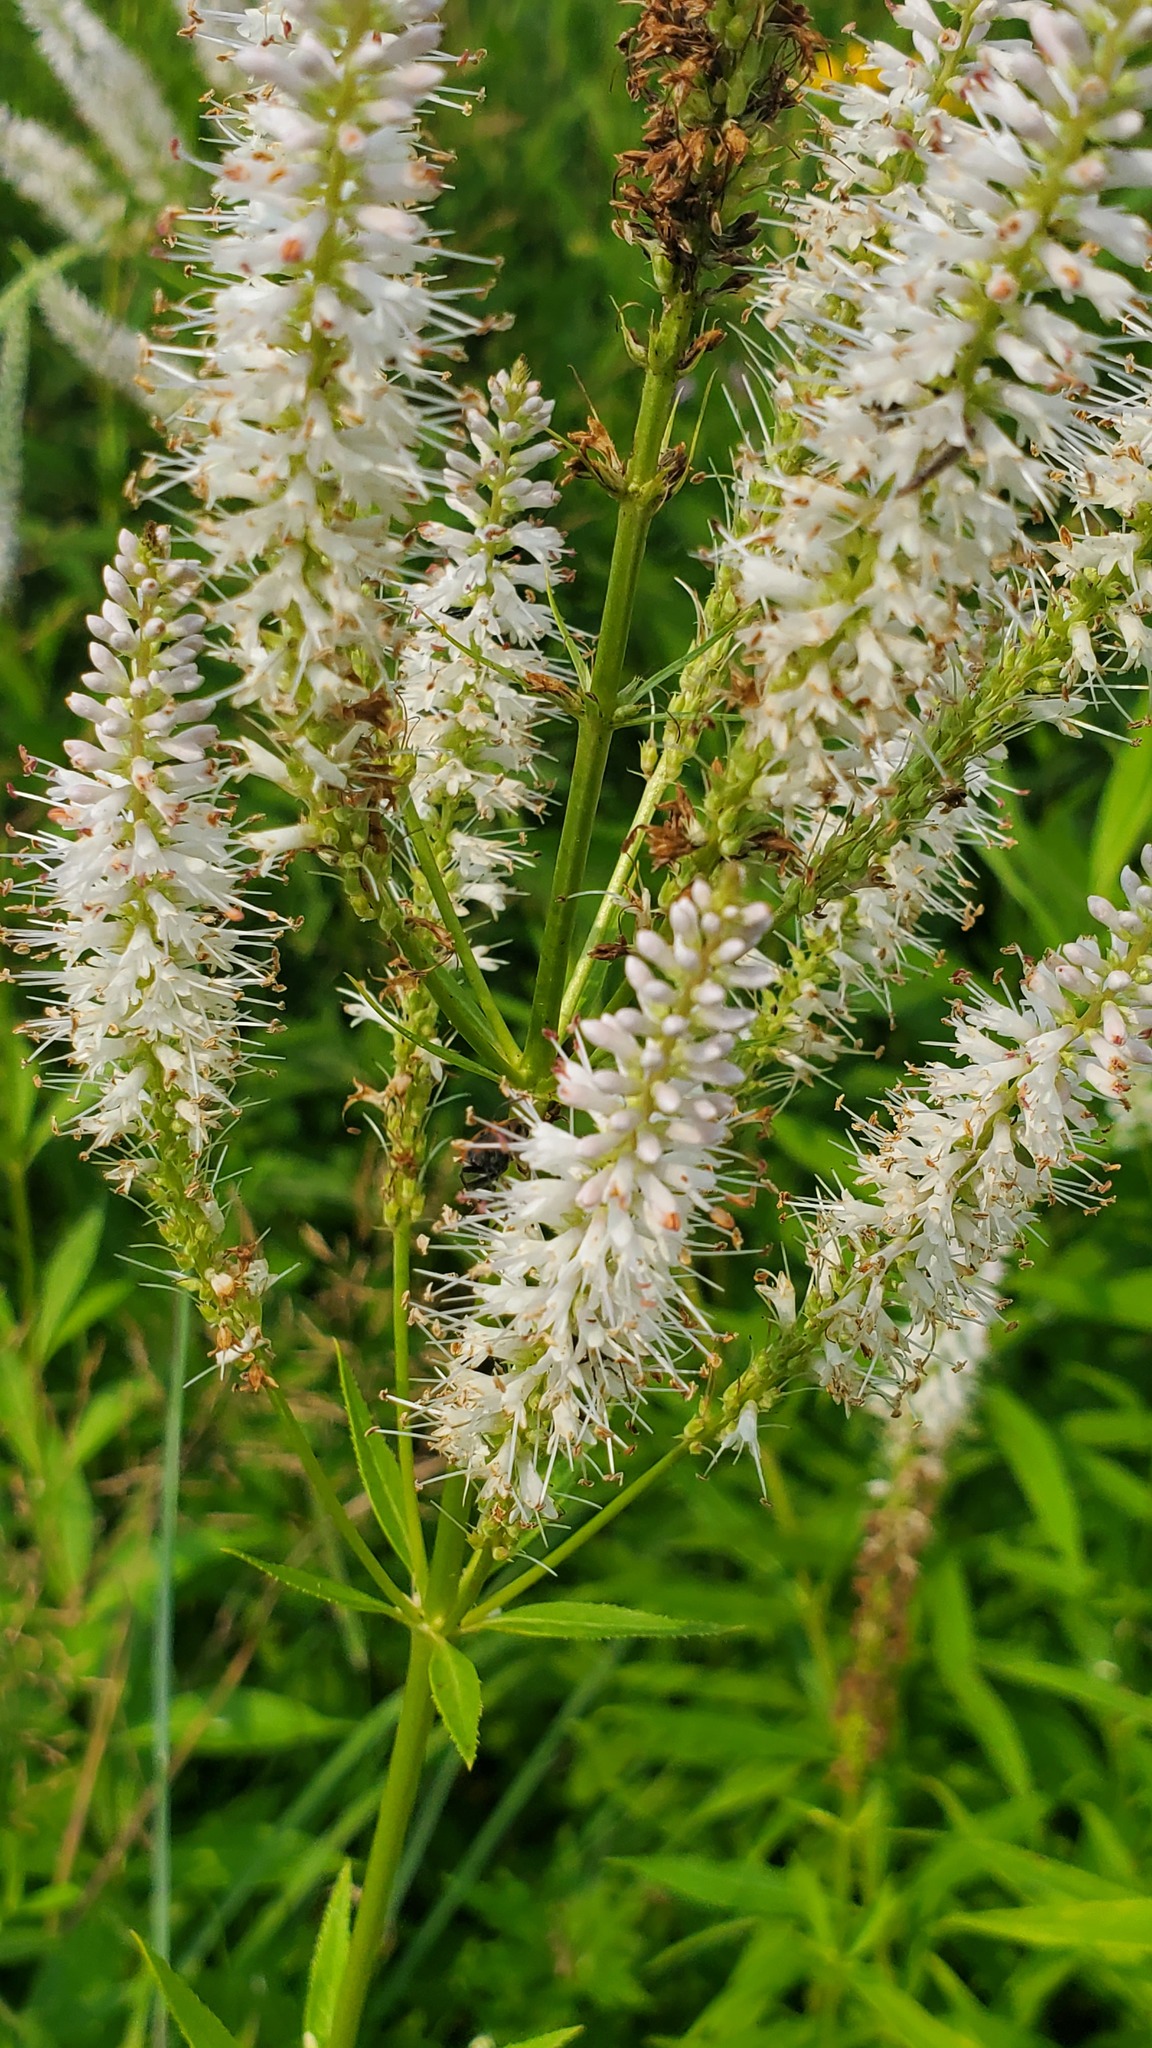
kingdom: Plantae
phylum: Tracheophyta
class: Magnoliopsida
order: Lamiales
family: Plantaginaceae
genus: Veronicastrum
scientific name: Veronicastrum virginicum
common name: Blackroot
